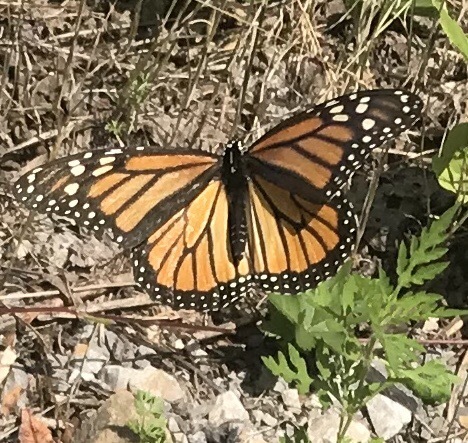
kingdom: Animalia
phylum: Arthropoda
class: Insecta
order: Lepidoptera
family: Nymphalidae
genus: Danaus
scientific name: Danaus plexippus
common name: Monarch
